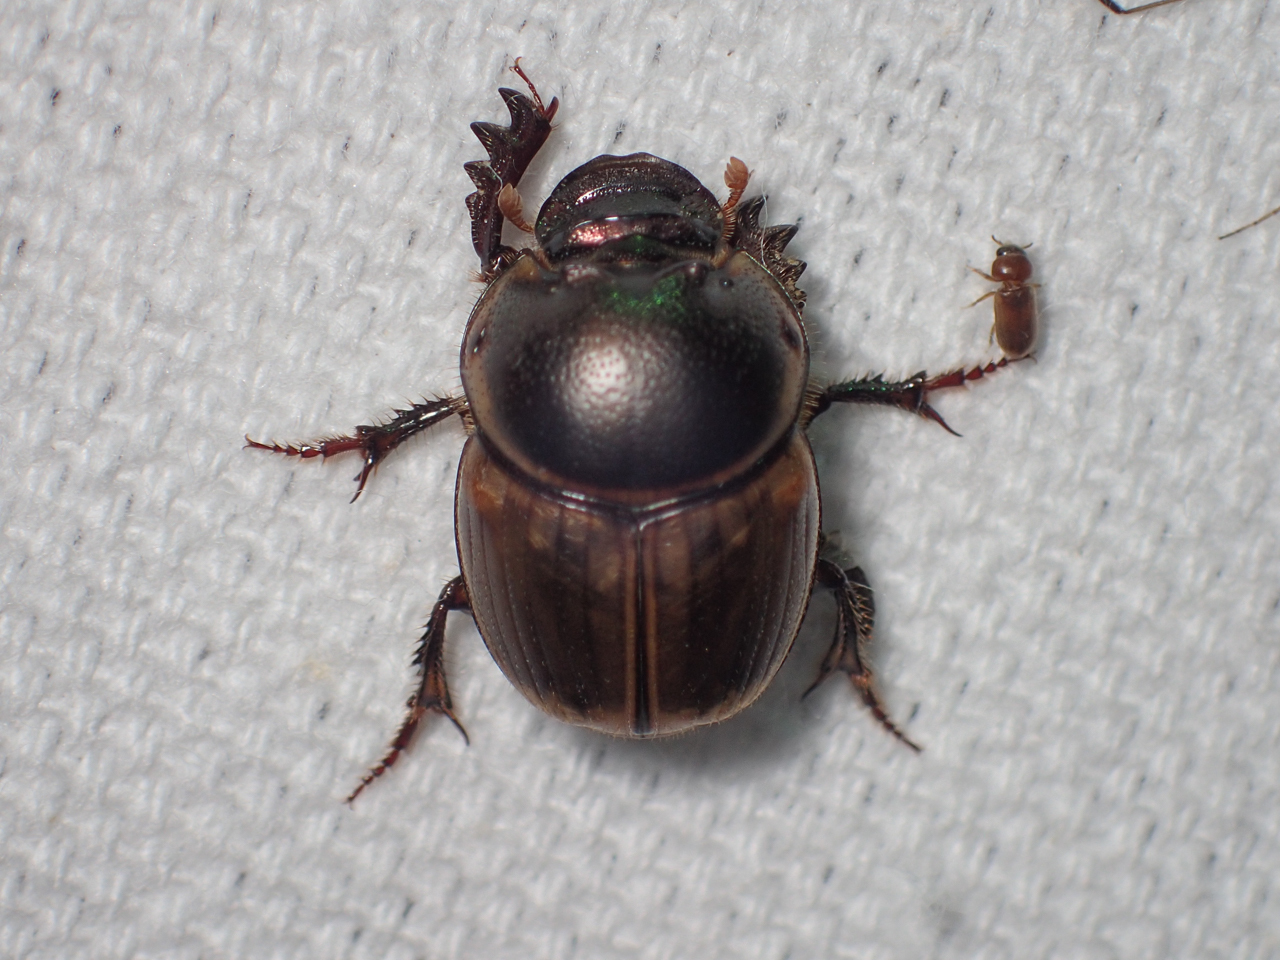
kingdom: Animalia
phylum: Arthropoda
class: Insecta
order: Coleoptera
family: Scarabaeidae
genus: Digitonthophagus
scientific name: Digitonthophagus gazella
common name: Brown dung beetle
